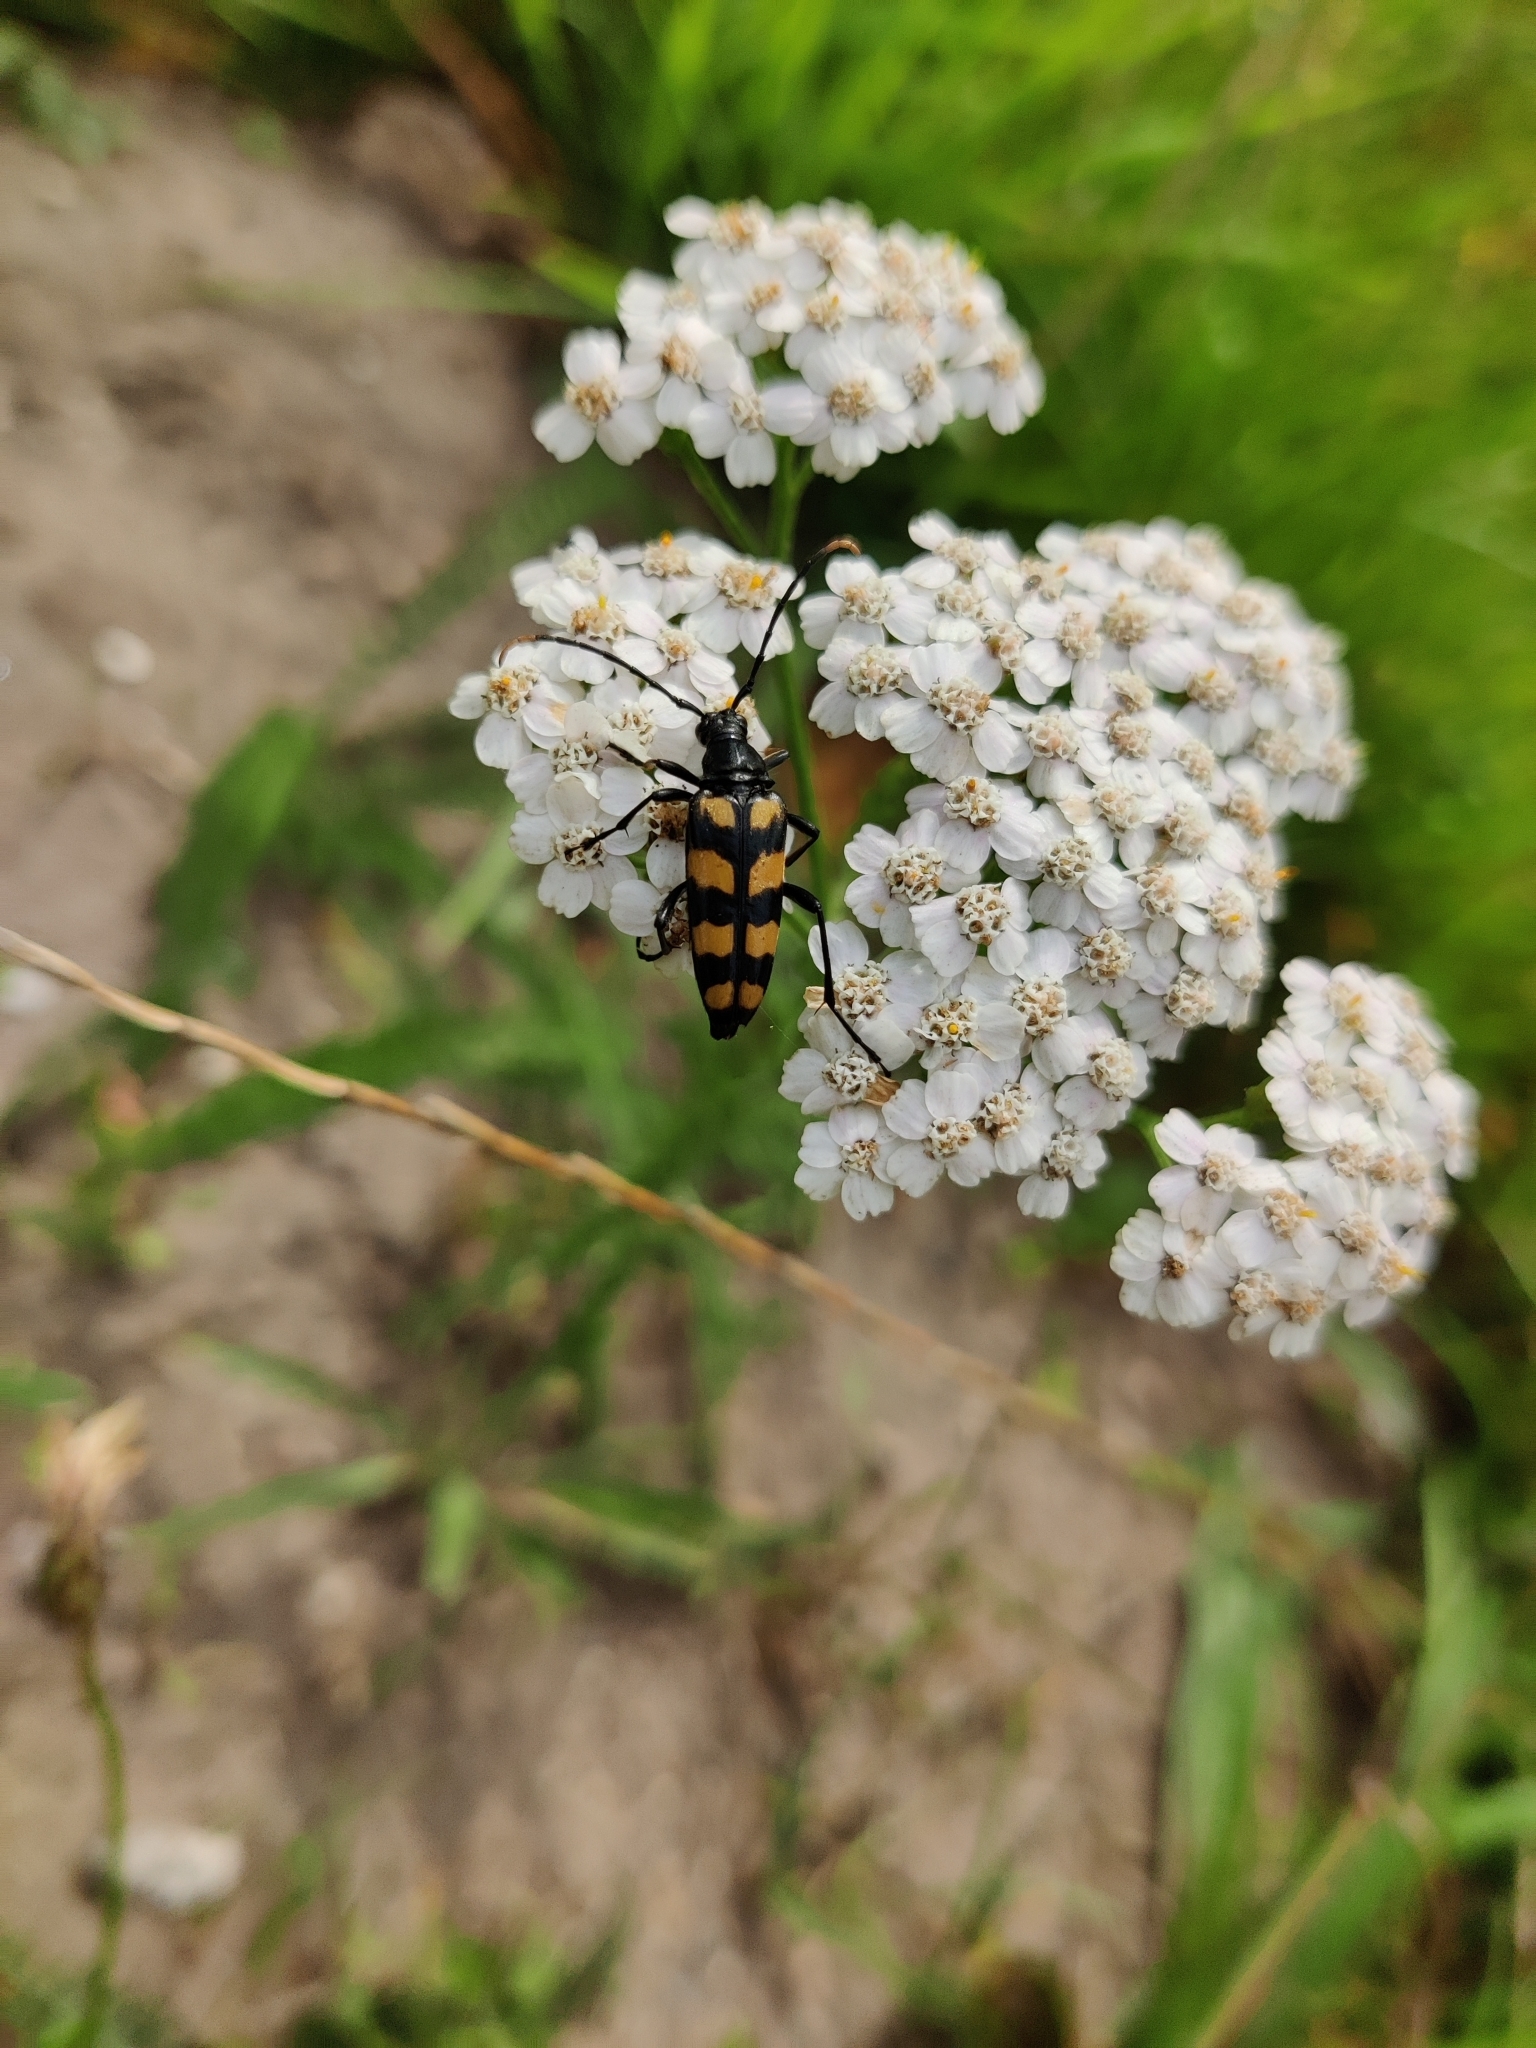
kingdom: Animalia
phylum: Arthropoda
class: Insecta
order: Coleoptera
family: Cerambycidae
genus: Leptura
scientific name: Leptura quadrifasciata
